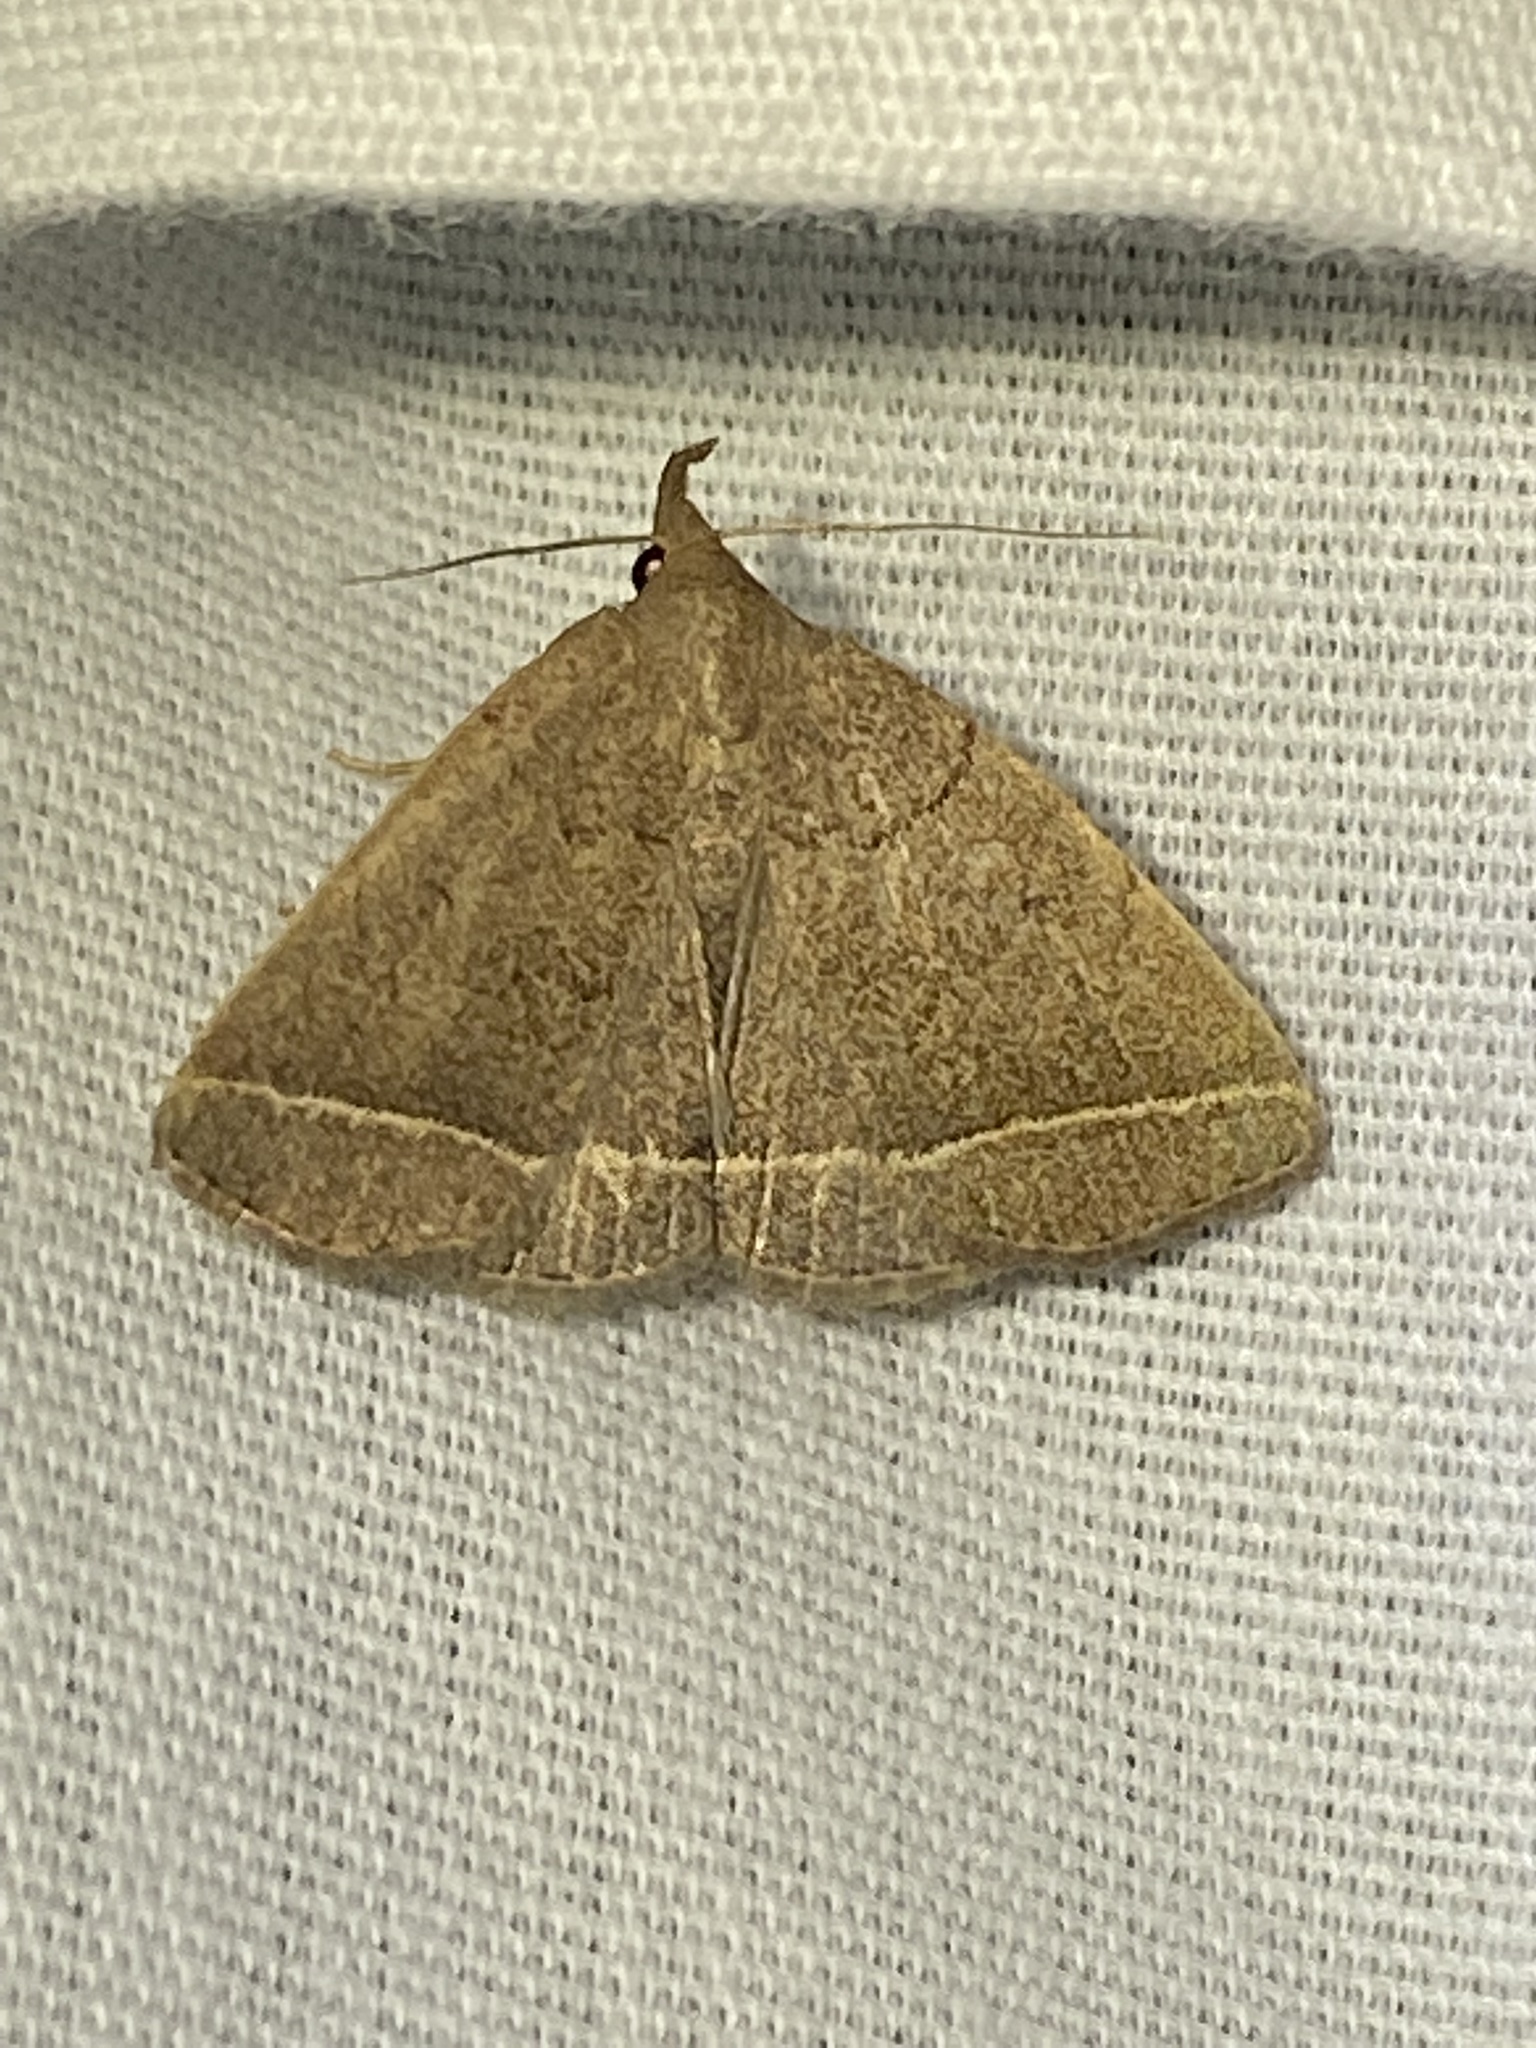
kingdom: Animalia
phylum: Arthropoda
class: Insecta
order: Lepidoptera
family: Erebidae
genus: Zanclognatha
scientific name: Zanclognatha marcidilinea
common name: Yellowish fan-foot
